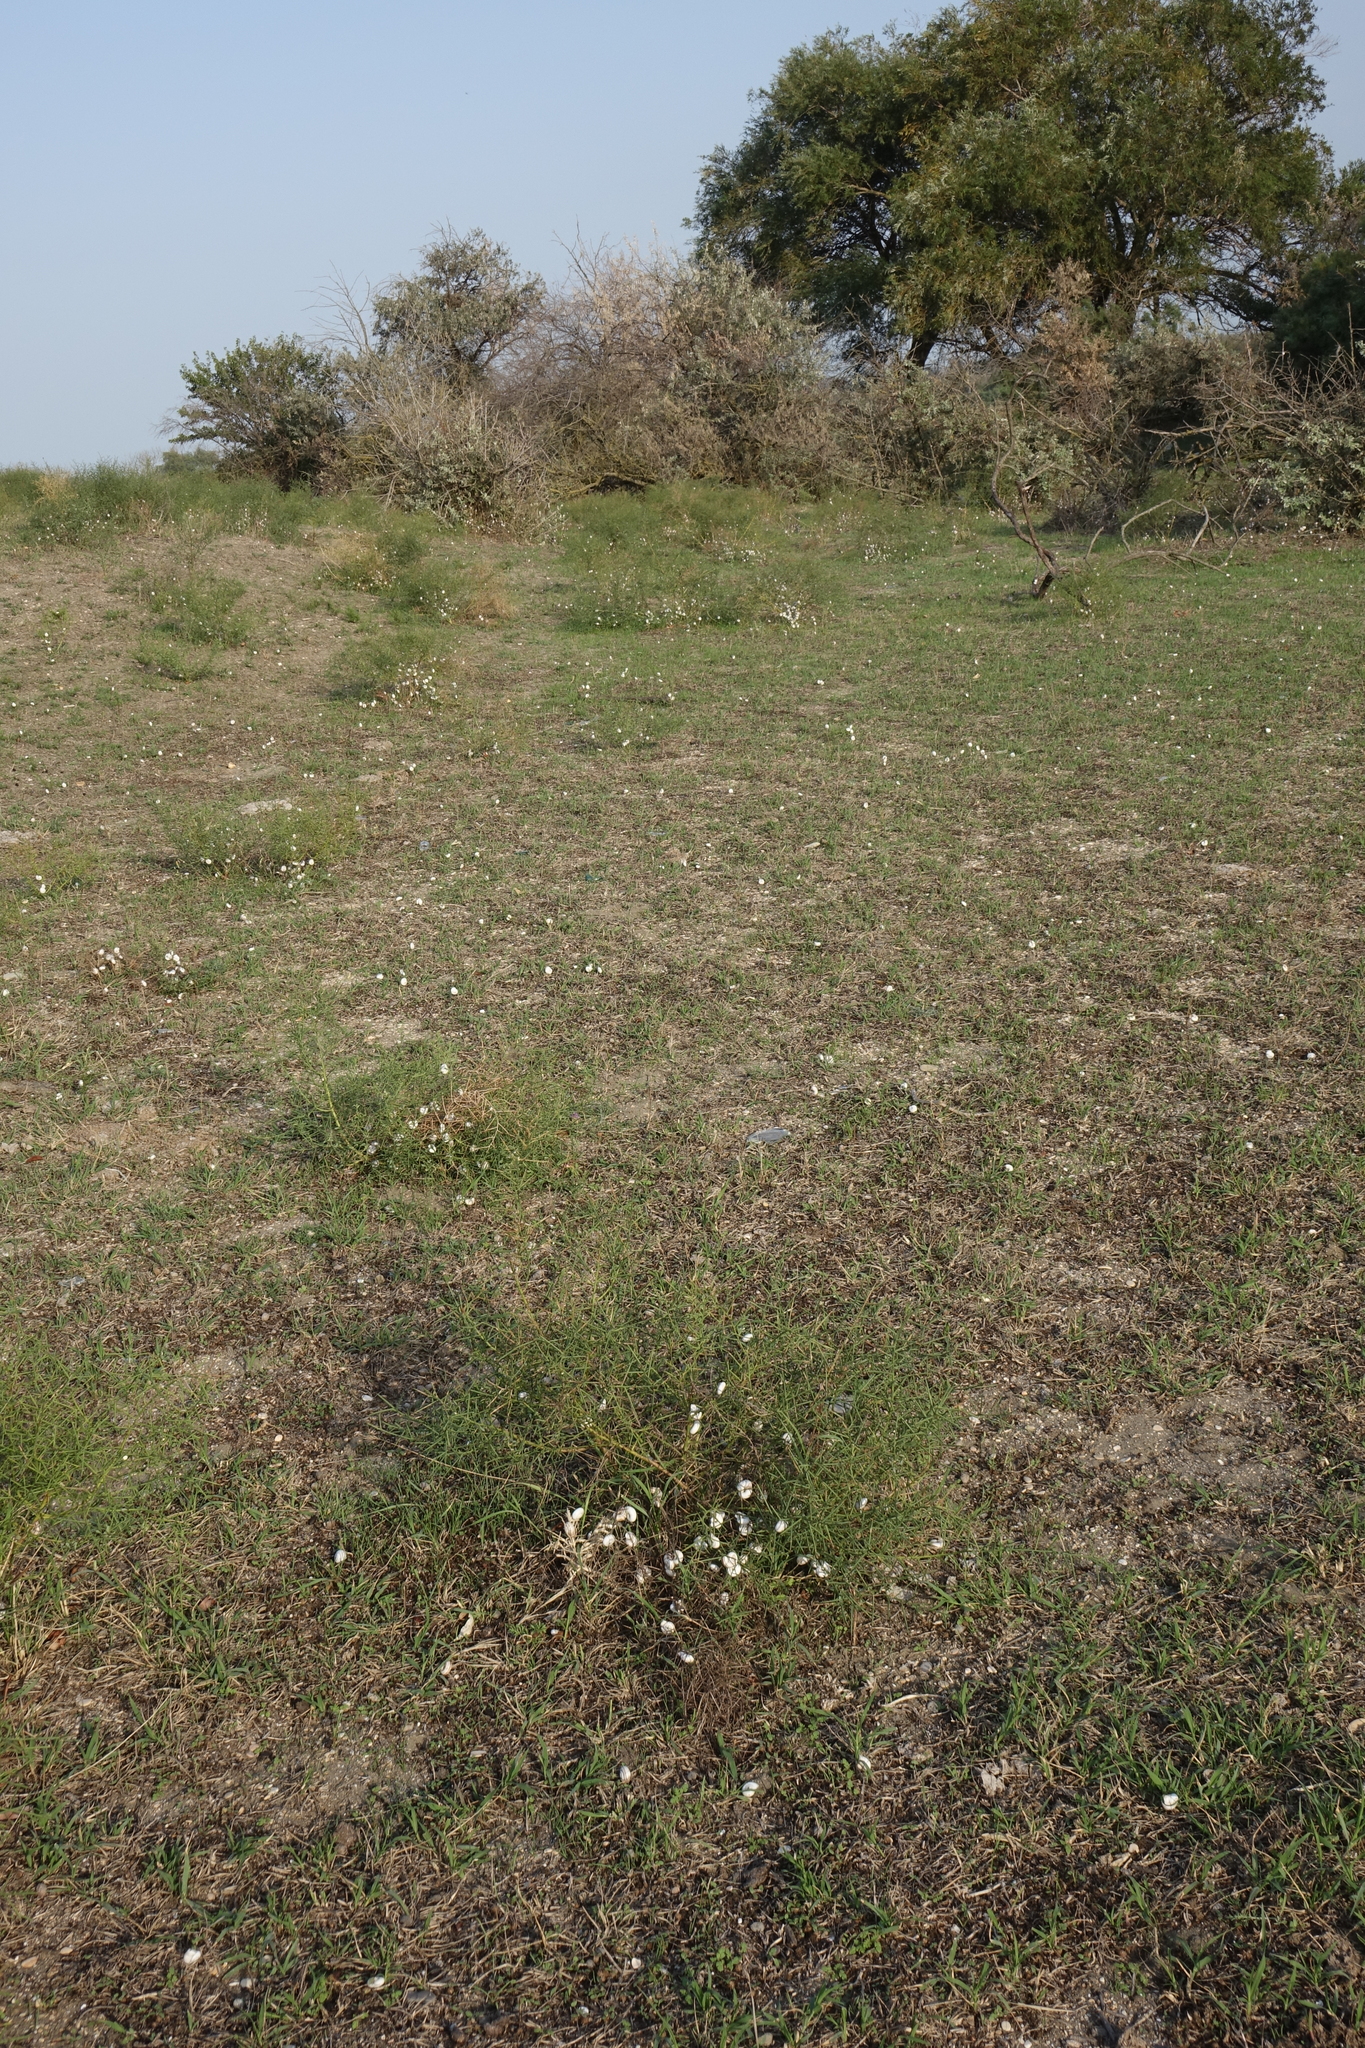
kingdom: Animalia
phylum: Mollusca
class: Gastropoda
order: Stylommatophora
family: Geomitridae
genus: Xeropicta
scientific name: Xeropicta derbentina
